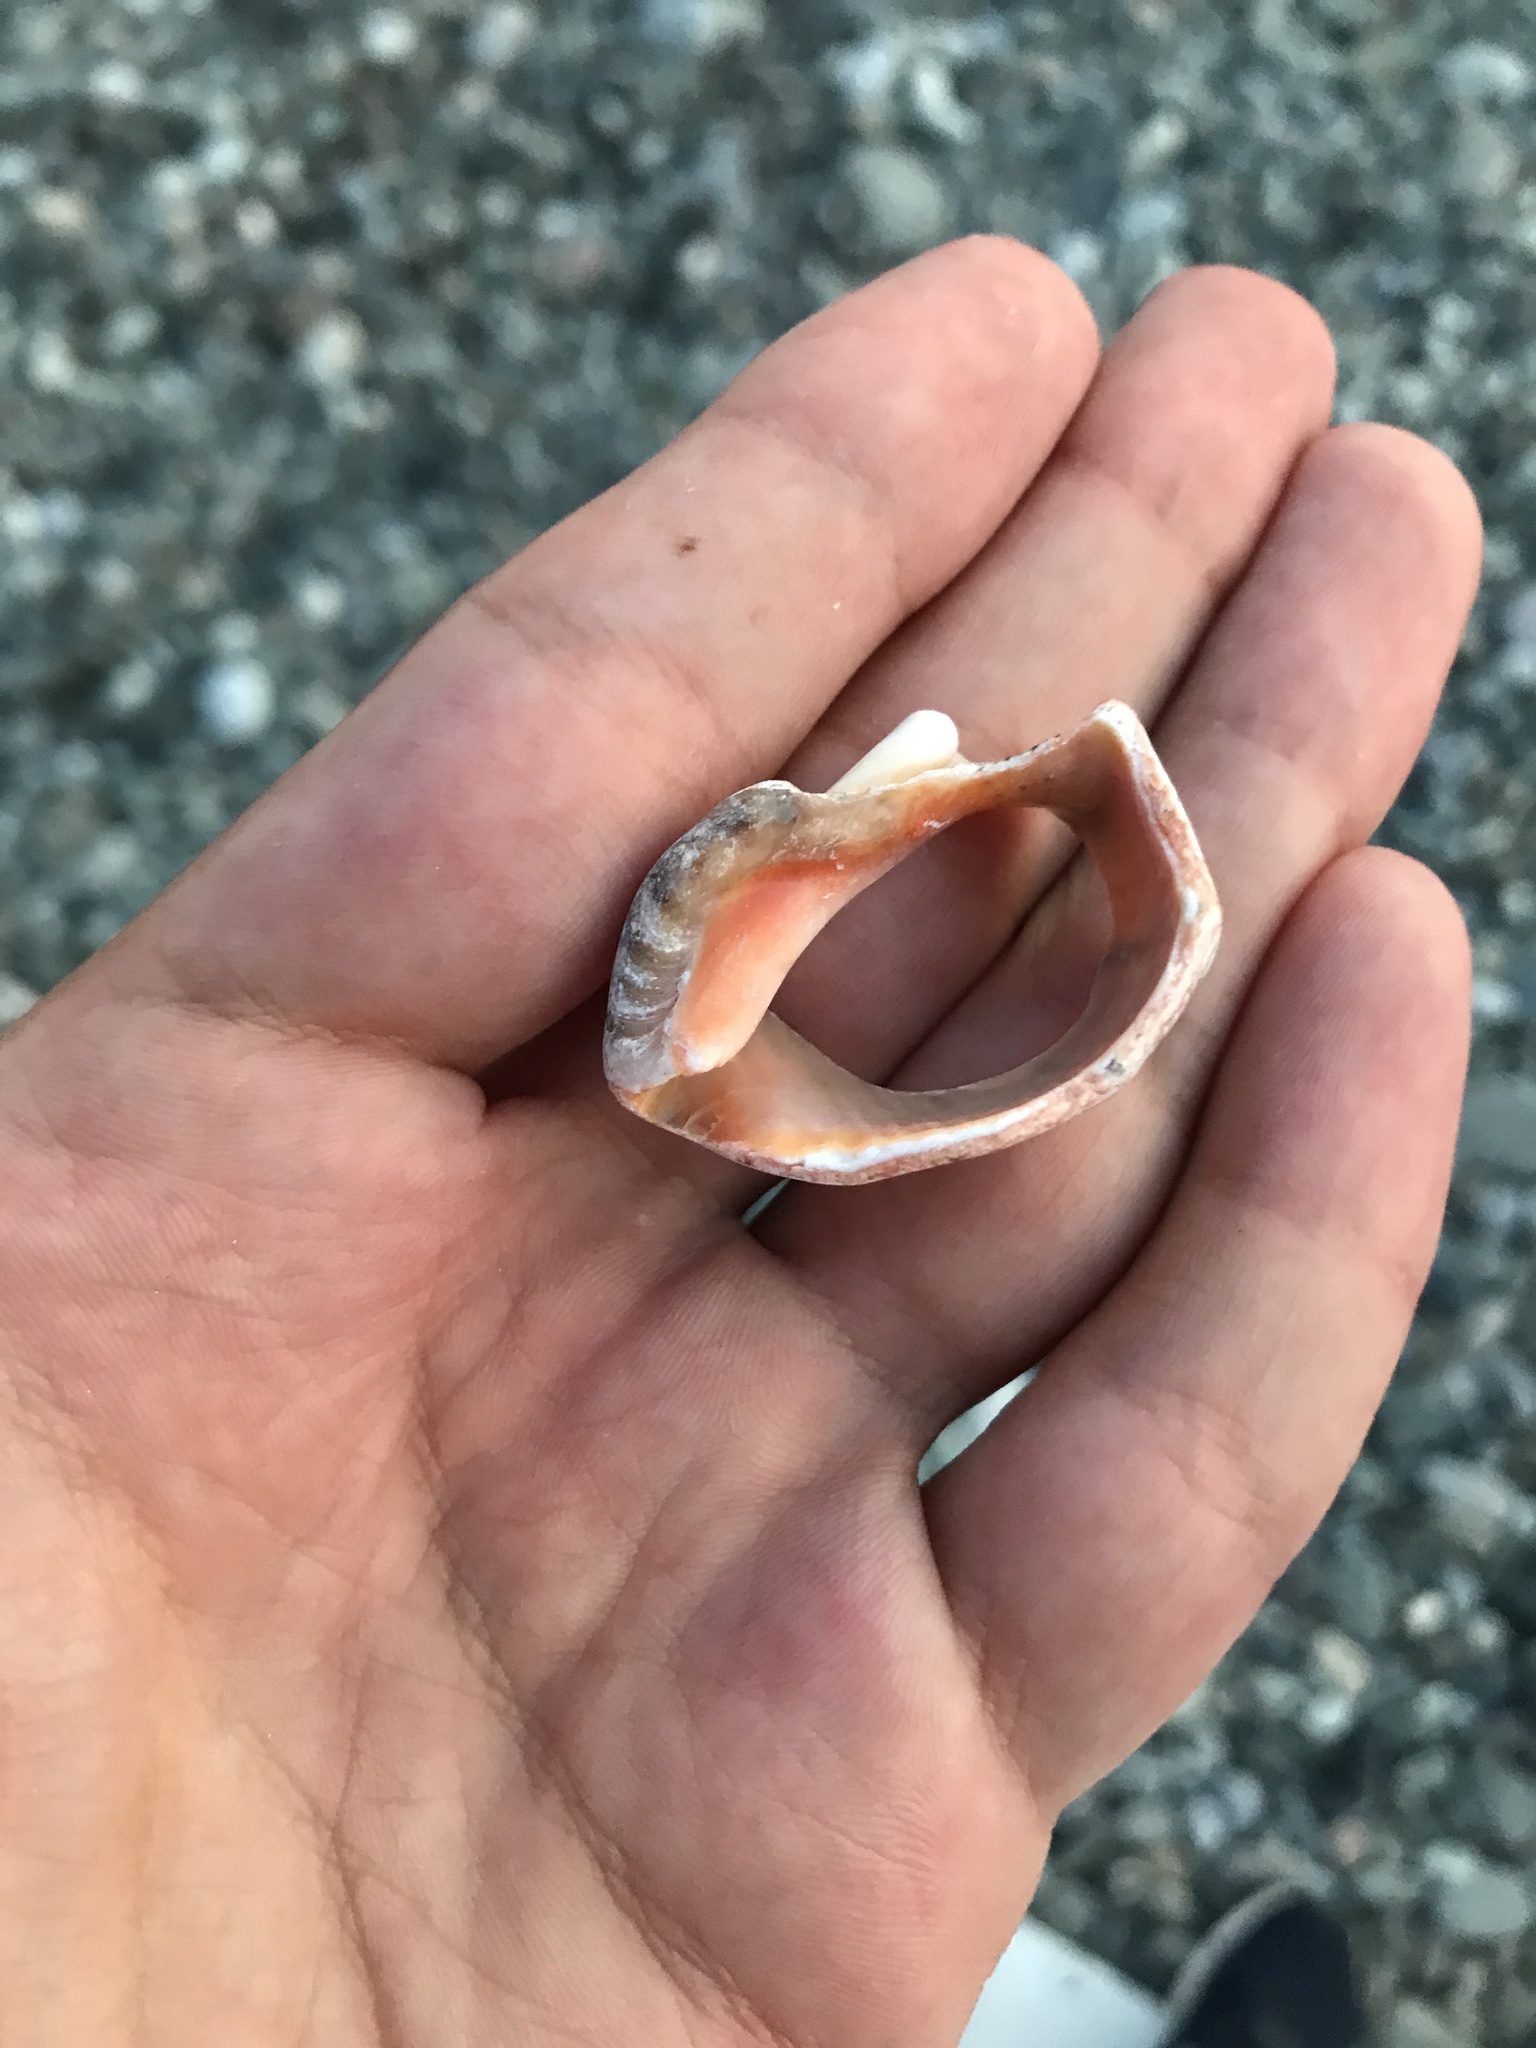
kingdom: Animalia
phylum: Mollusca
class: Gastropoda
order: Neogastropoda
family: Muricidae
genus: Rapana
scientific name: Rapana venosa
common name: Veined rapa whelk
